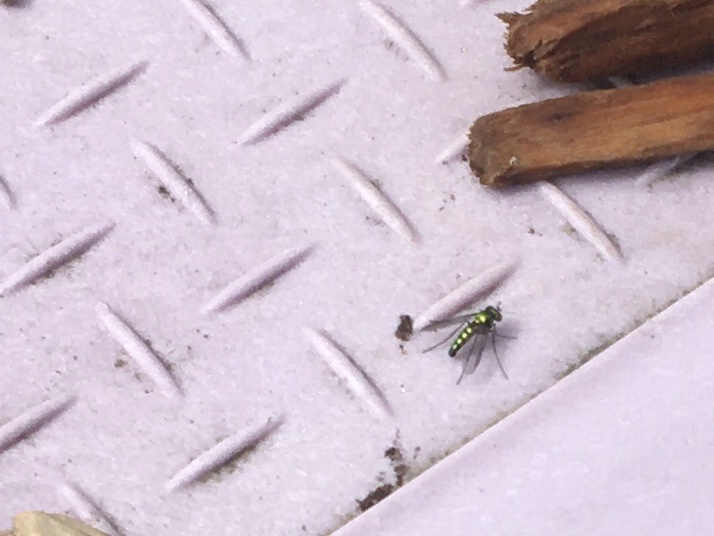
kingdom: Animalia
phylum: Arthropoda
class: Insecta
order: Diptera
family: Dolichopodidae
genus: Condylostylus
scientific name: Condylostylus longicornis
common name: Long-legged fly
